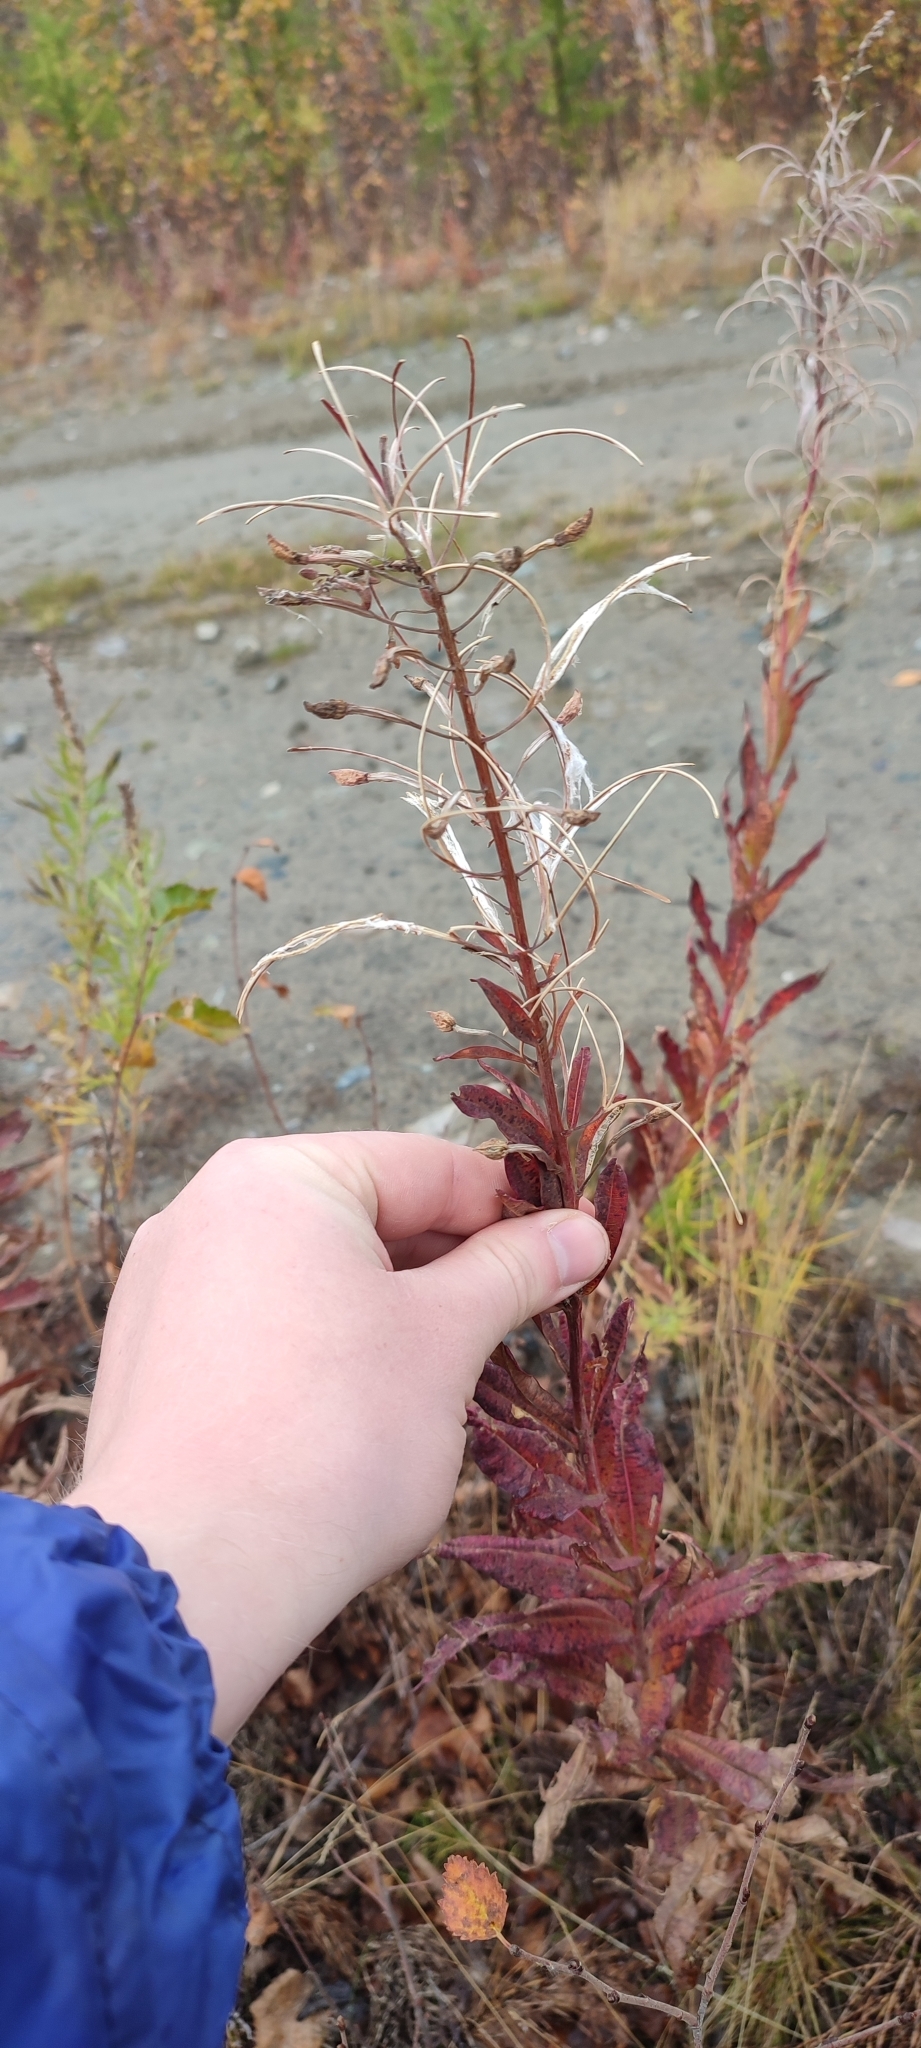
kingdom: Plantae
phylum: Tracheophyta
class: Magnoliopsida
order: Myrtales
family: Onagraceae
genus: Chamaenerion
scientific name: Chamaenerion angustifolium
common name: Fireweed
